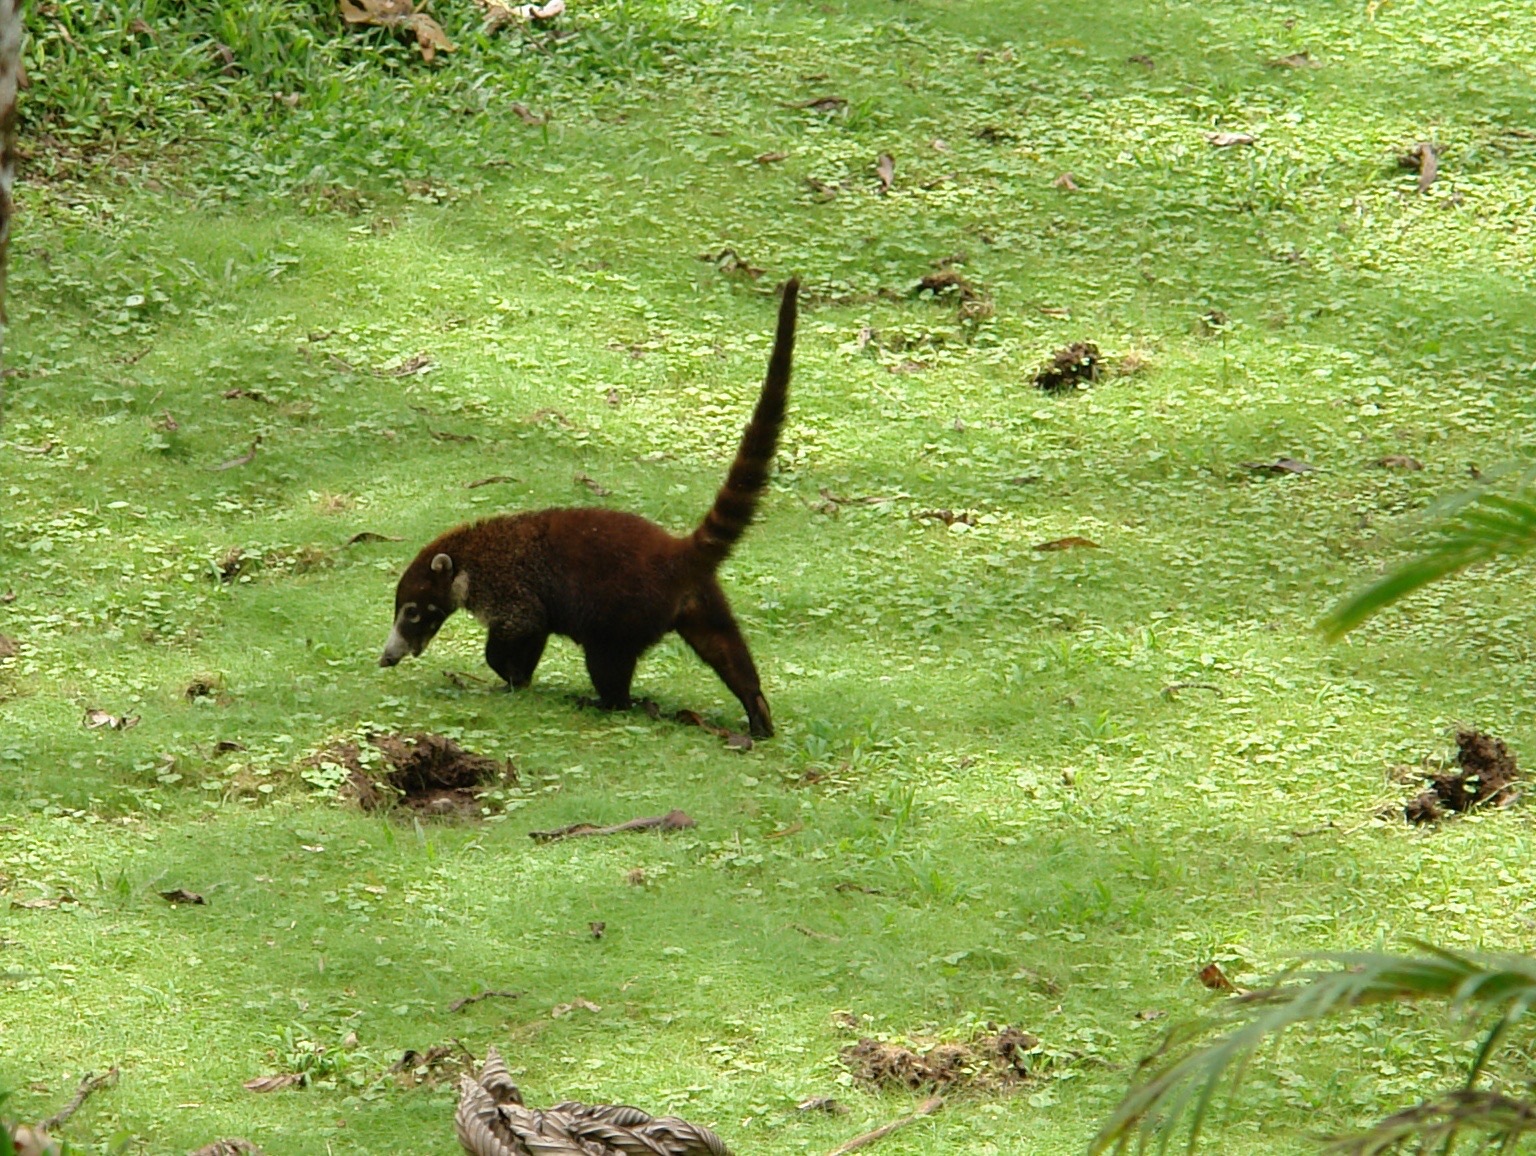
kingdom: Animalia
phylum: Chordata
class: Mammalia
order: Carnivora
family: Procyonidae
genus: Nasua
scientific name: Nasua narica
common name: White-nosed coati
